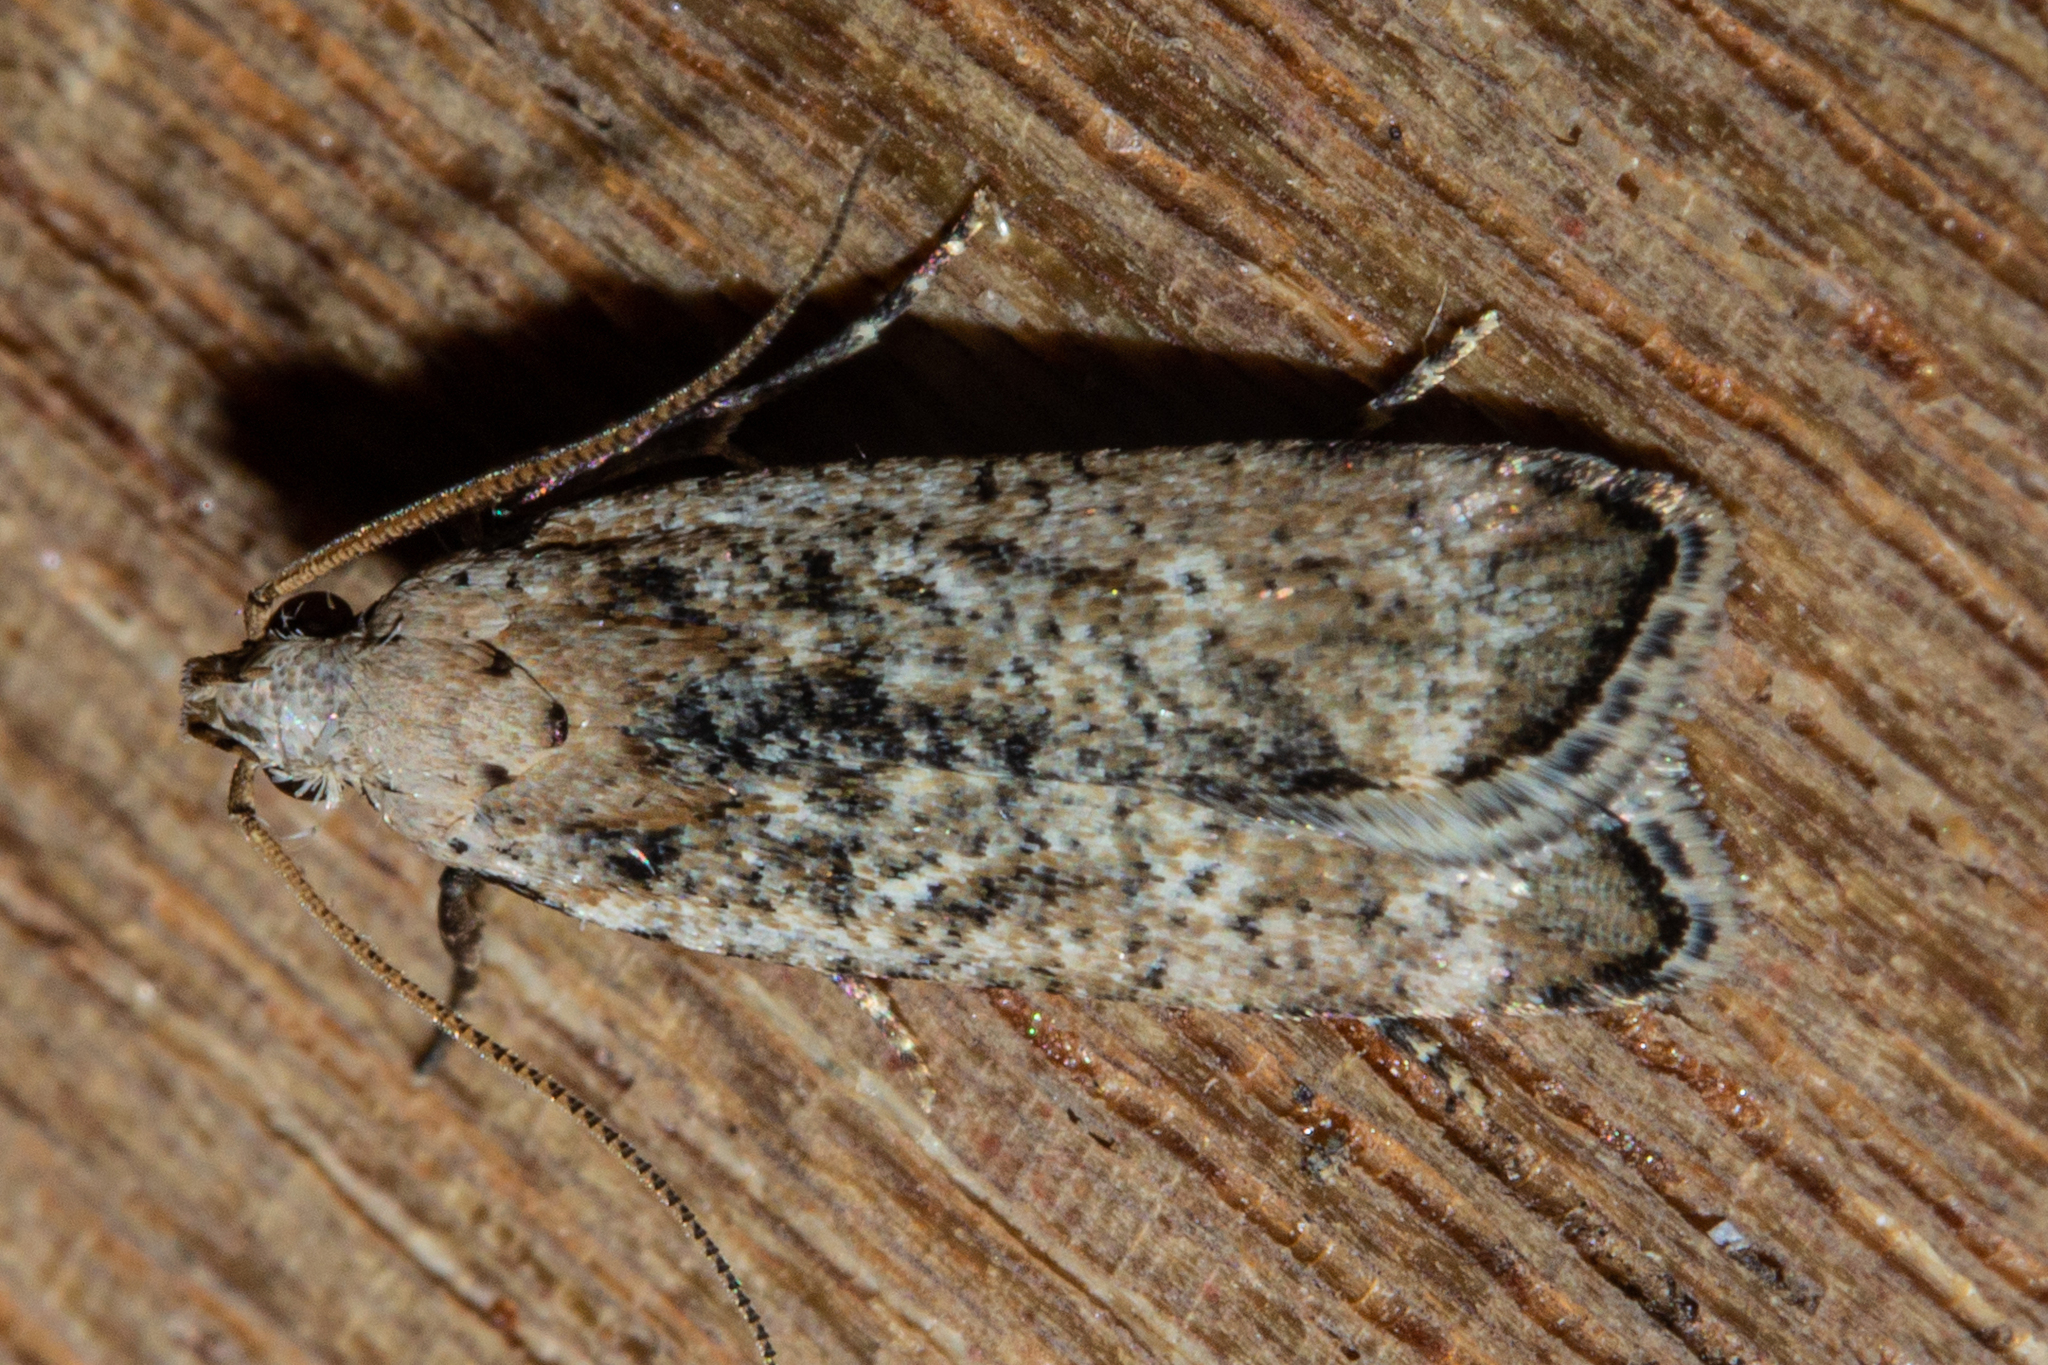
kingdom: Animalia
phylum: Arthropoda
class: Insecta
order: Lepidoptera
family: Gelechiidae
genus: Anisoplaca
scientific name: Anisoplaca achyrota
